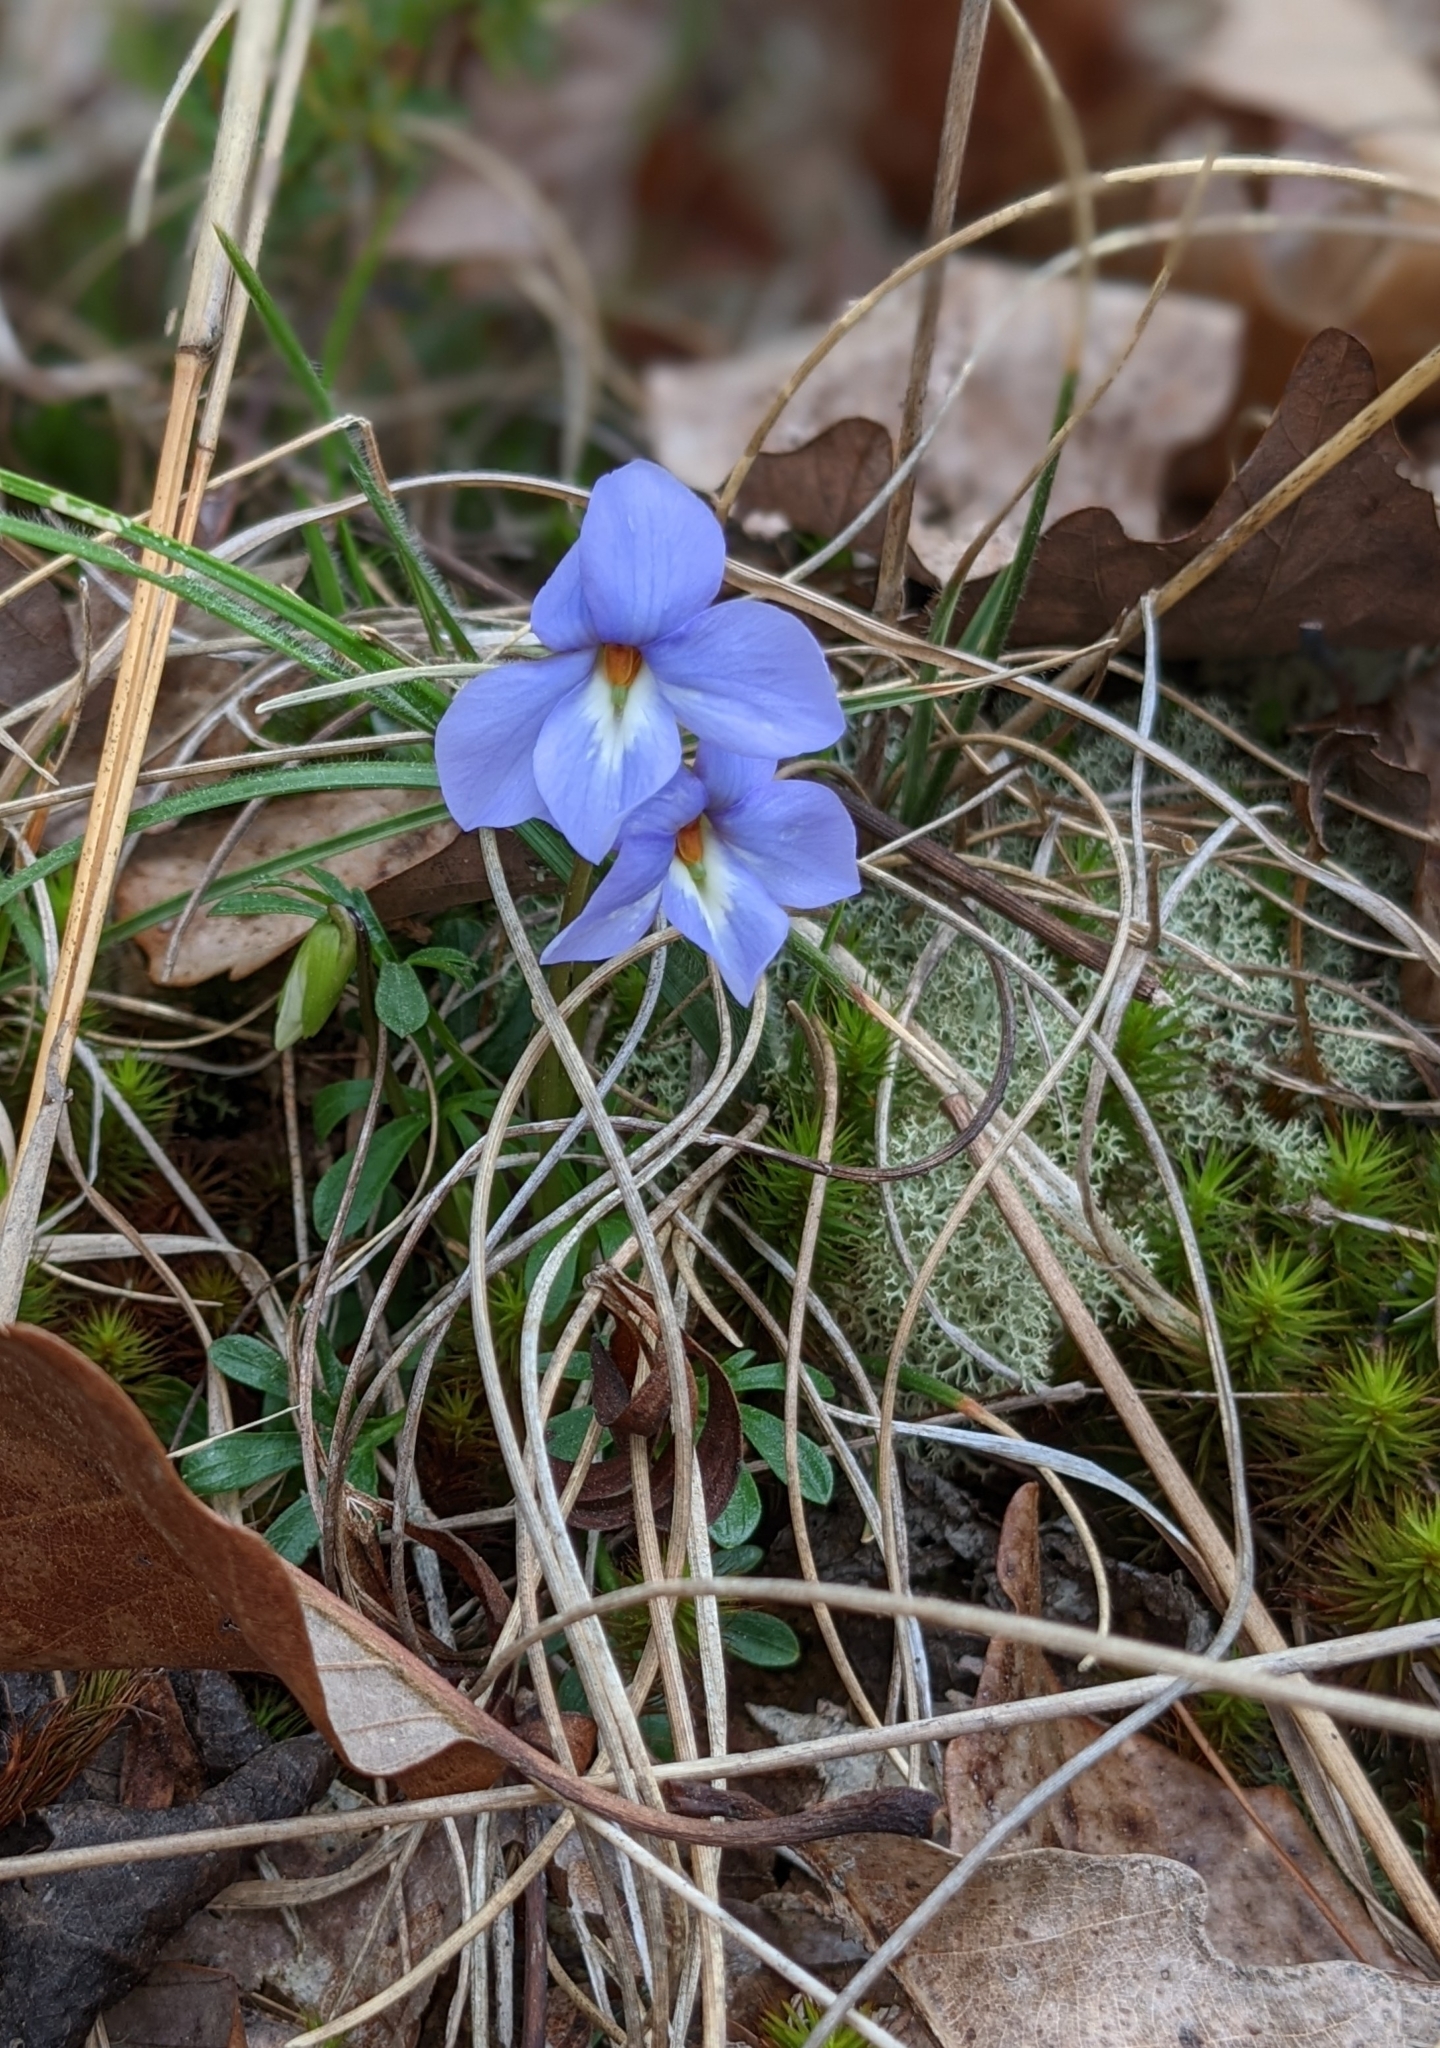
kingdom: Plantae
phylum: Tracheophyta
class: Magnoliopsida
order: Malpighiales
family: Violaceae
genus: Viola
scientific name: Viola pedata
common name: Pansy violet
